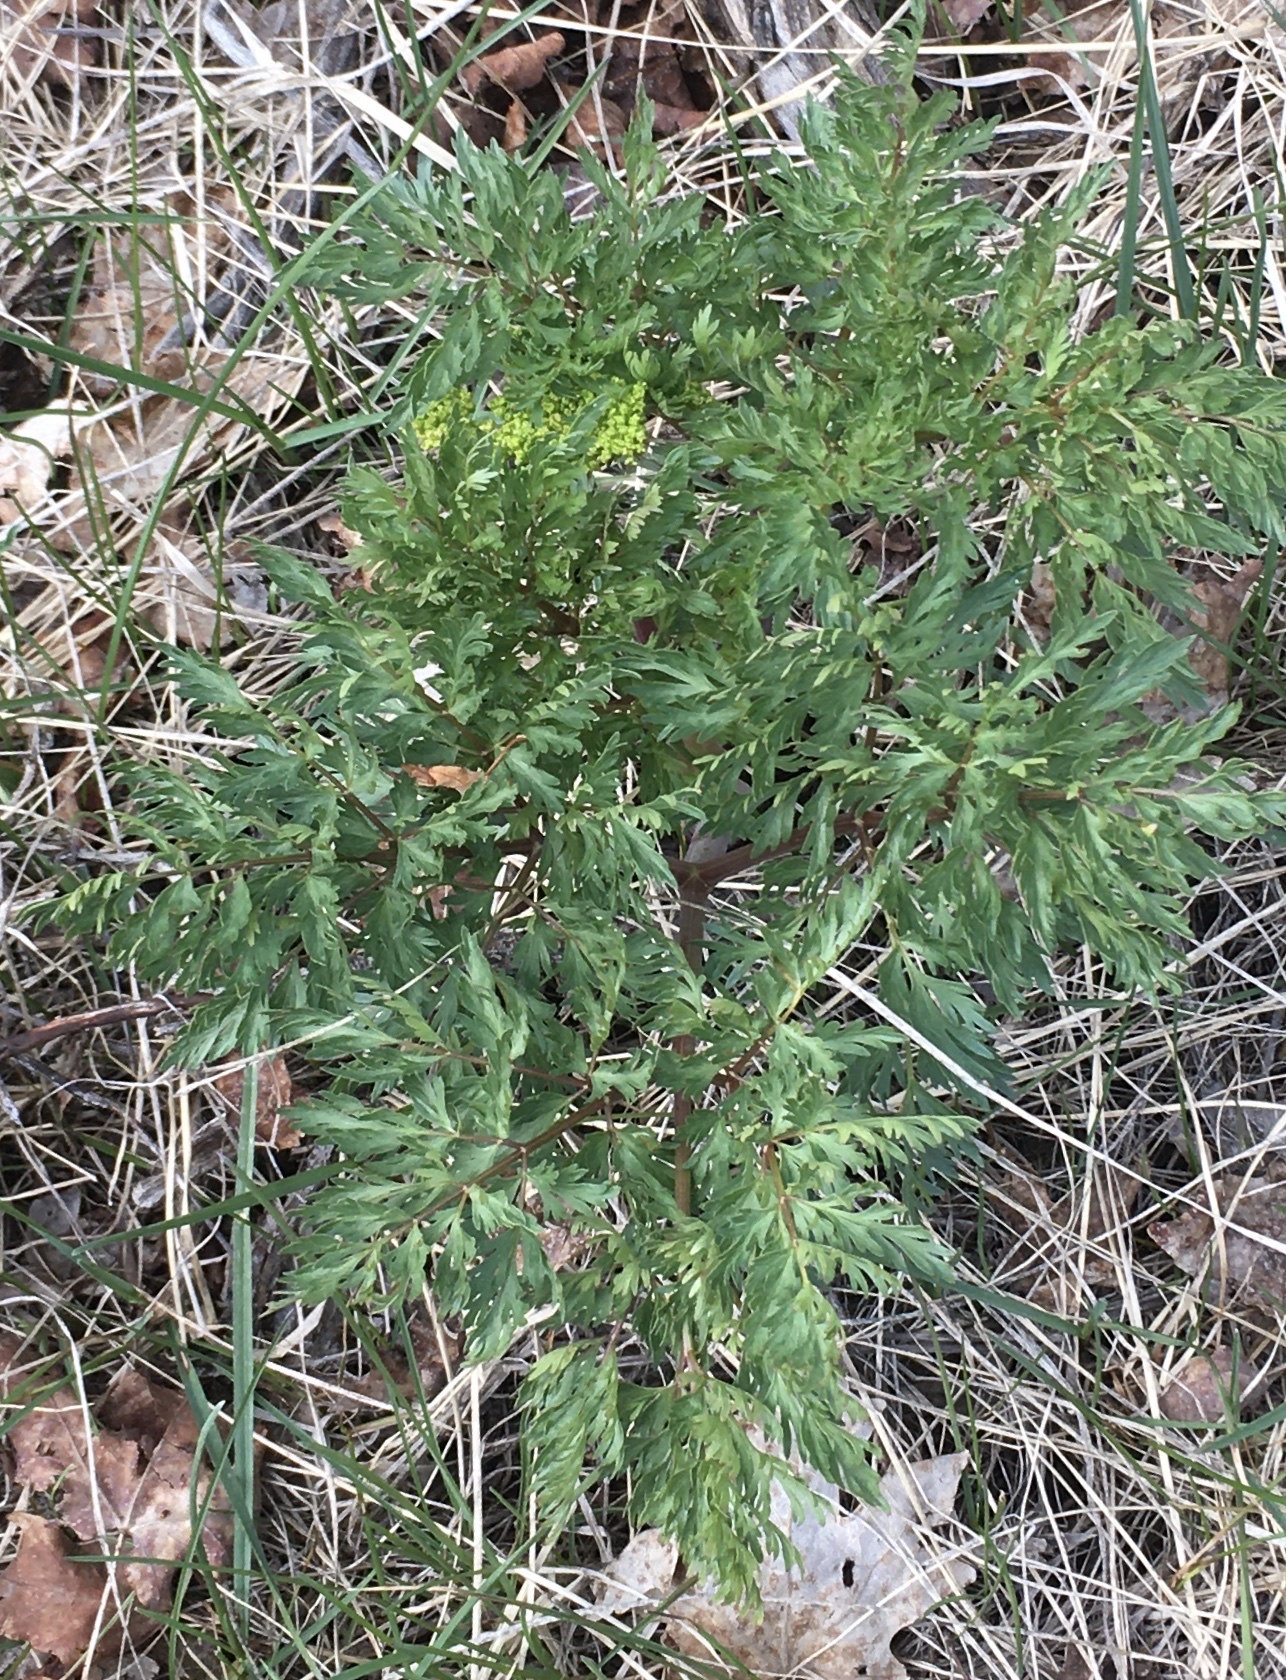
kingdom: Plantae
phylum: Tracheophyta
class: Magnoliopsida
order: Apiales
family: Apiaceae
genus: Lomatium
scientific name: Lomatium dissectum
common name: Lomatium
